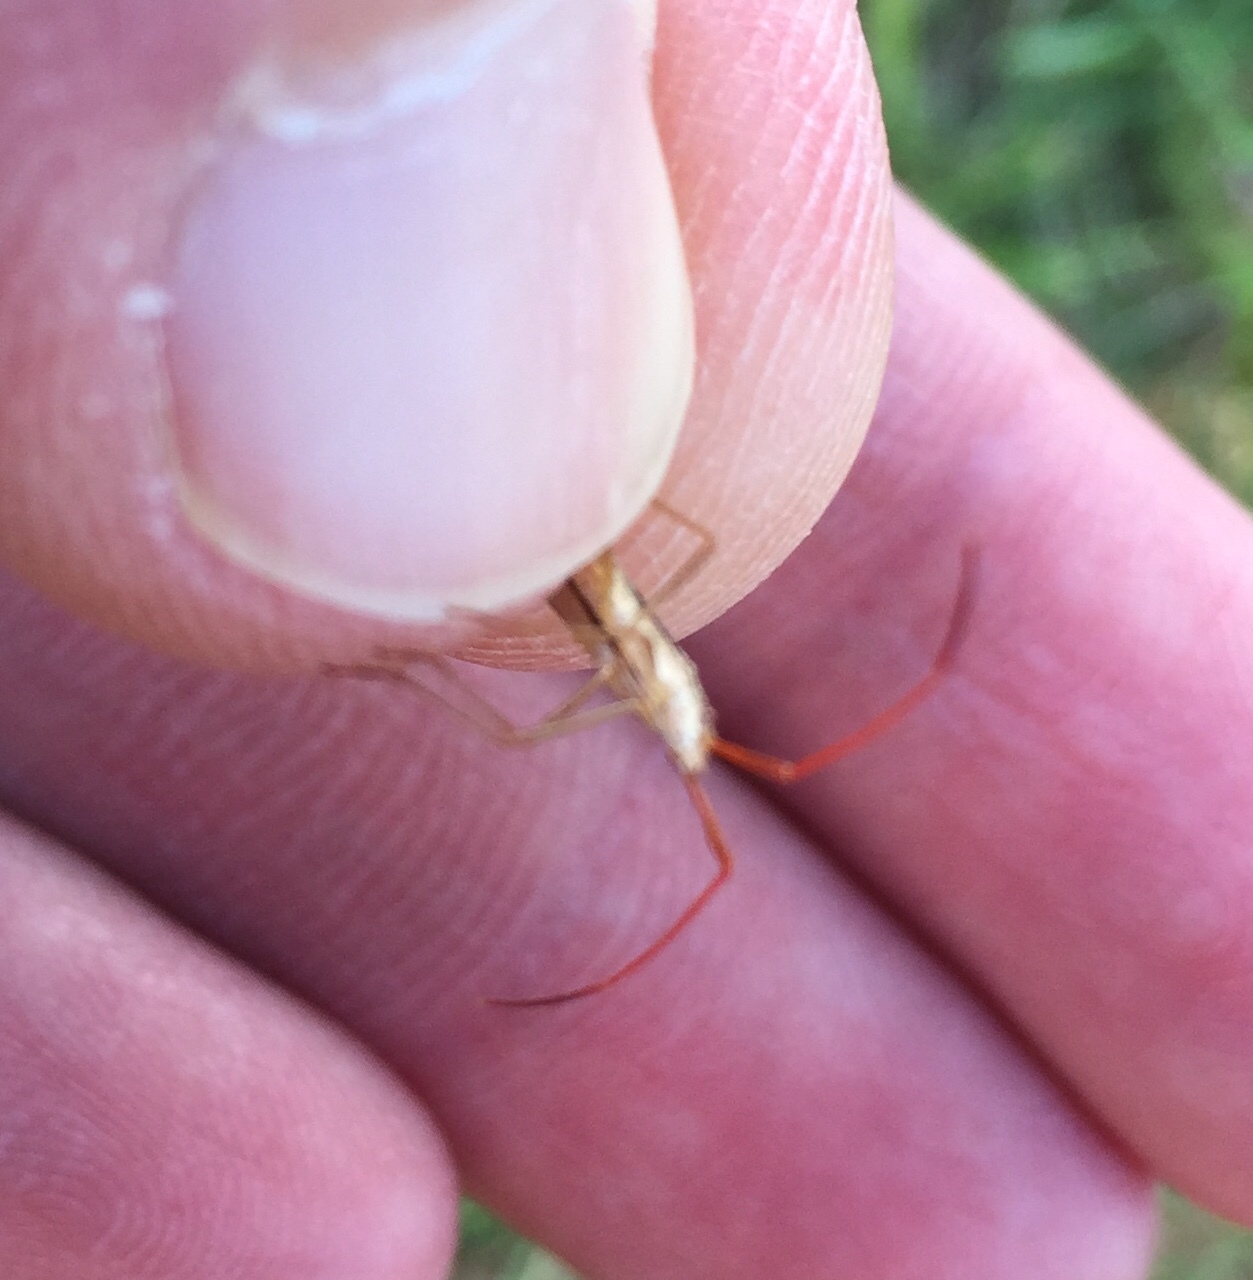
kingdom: Animalia
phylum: Arthropoda
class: Insecta
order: Hemiptera
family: Alydidae
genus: Protenor
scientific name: Protenor belfragei
